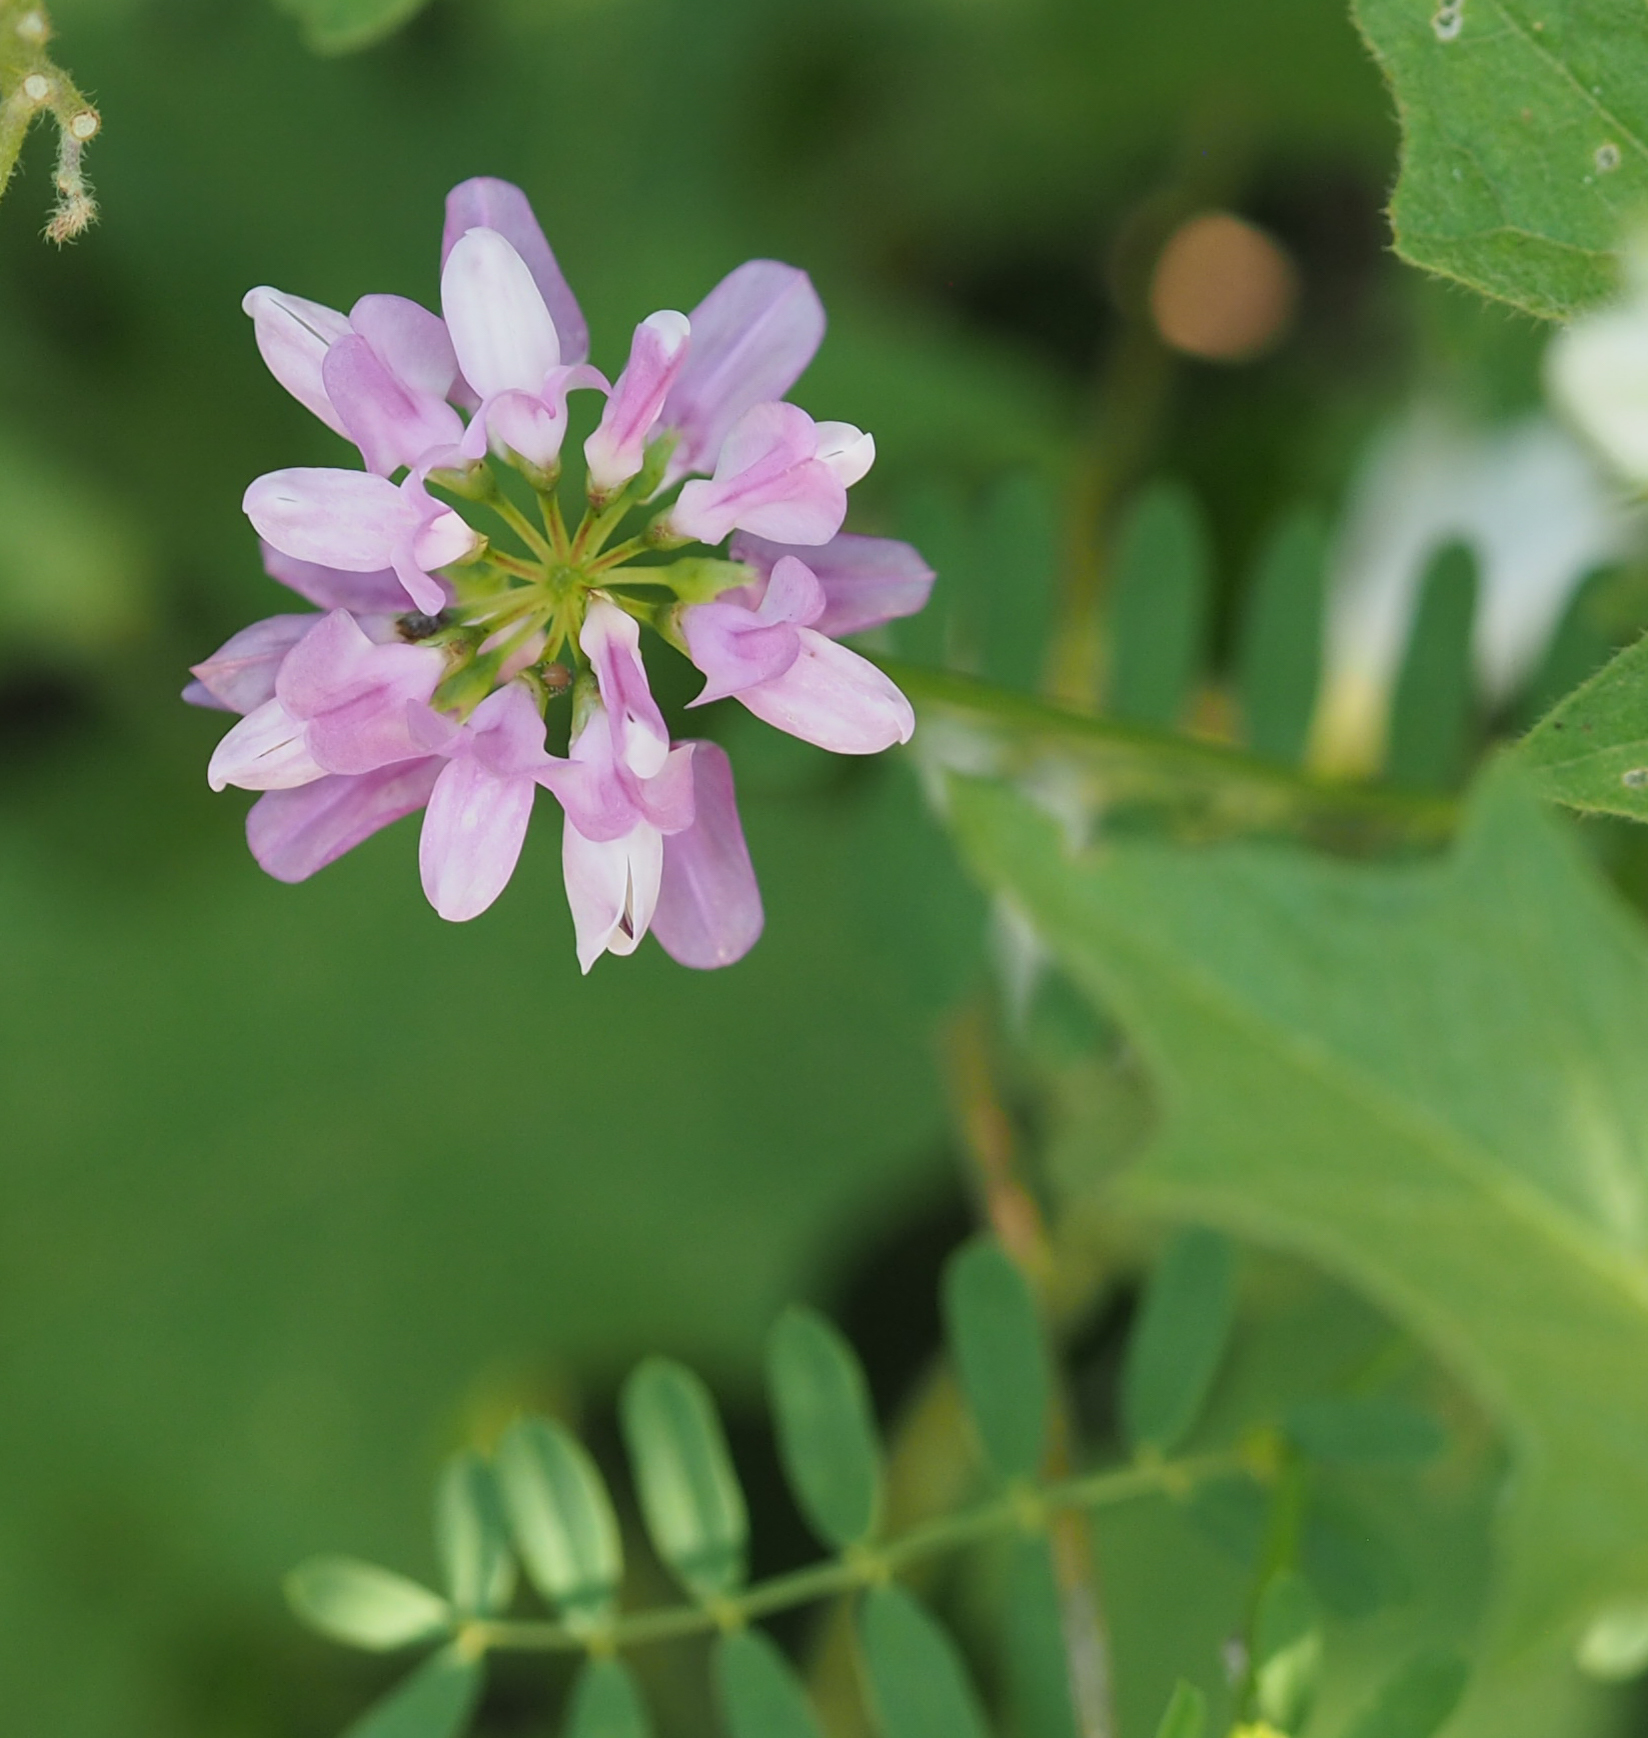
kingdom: Plantae
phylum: Tracheophyta
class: Magnoliopsida
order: Fabales
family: Fabaceae
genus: Coronilla
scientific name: Coronilla varia
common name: Crownvetch
